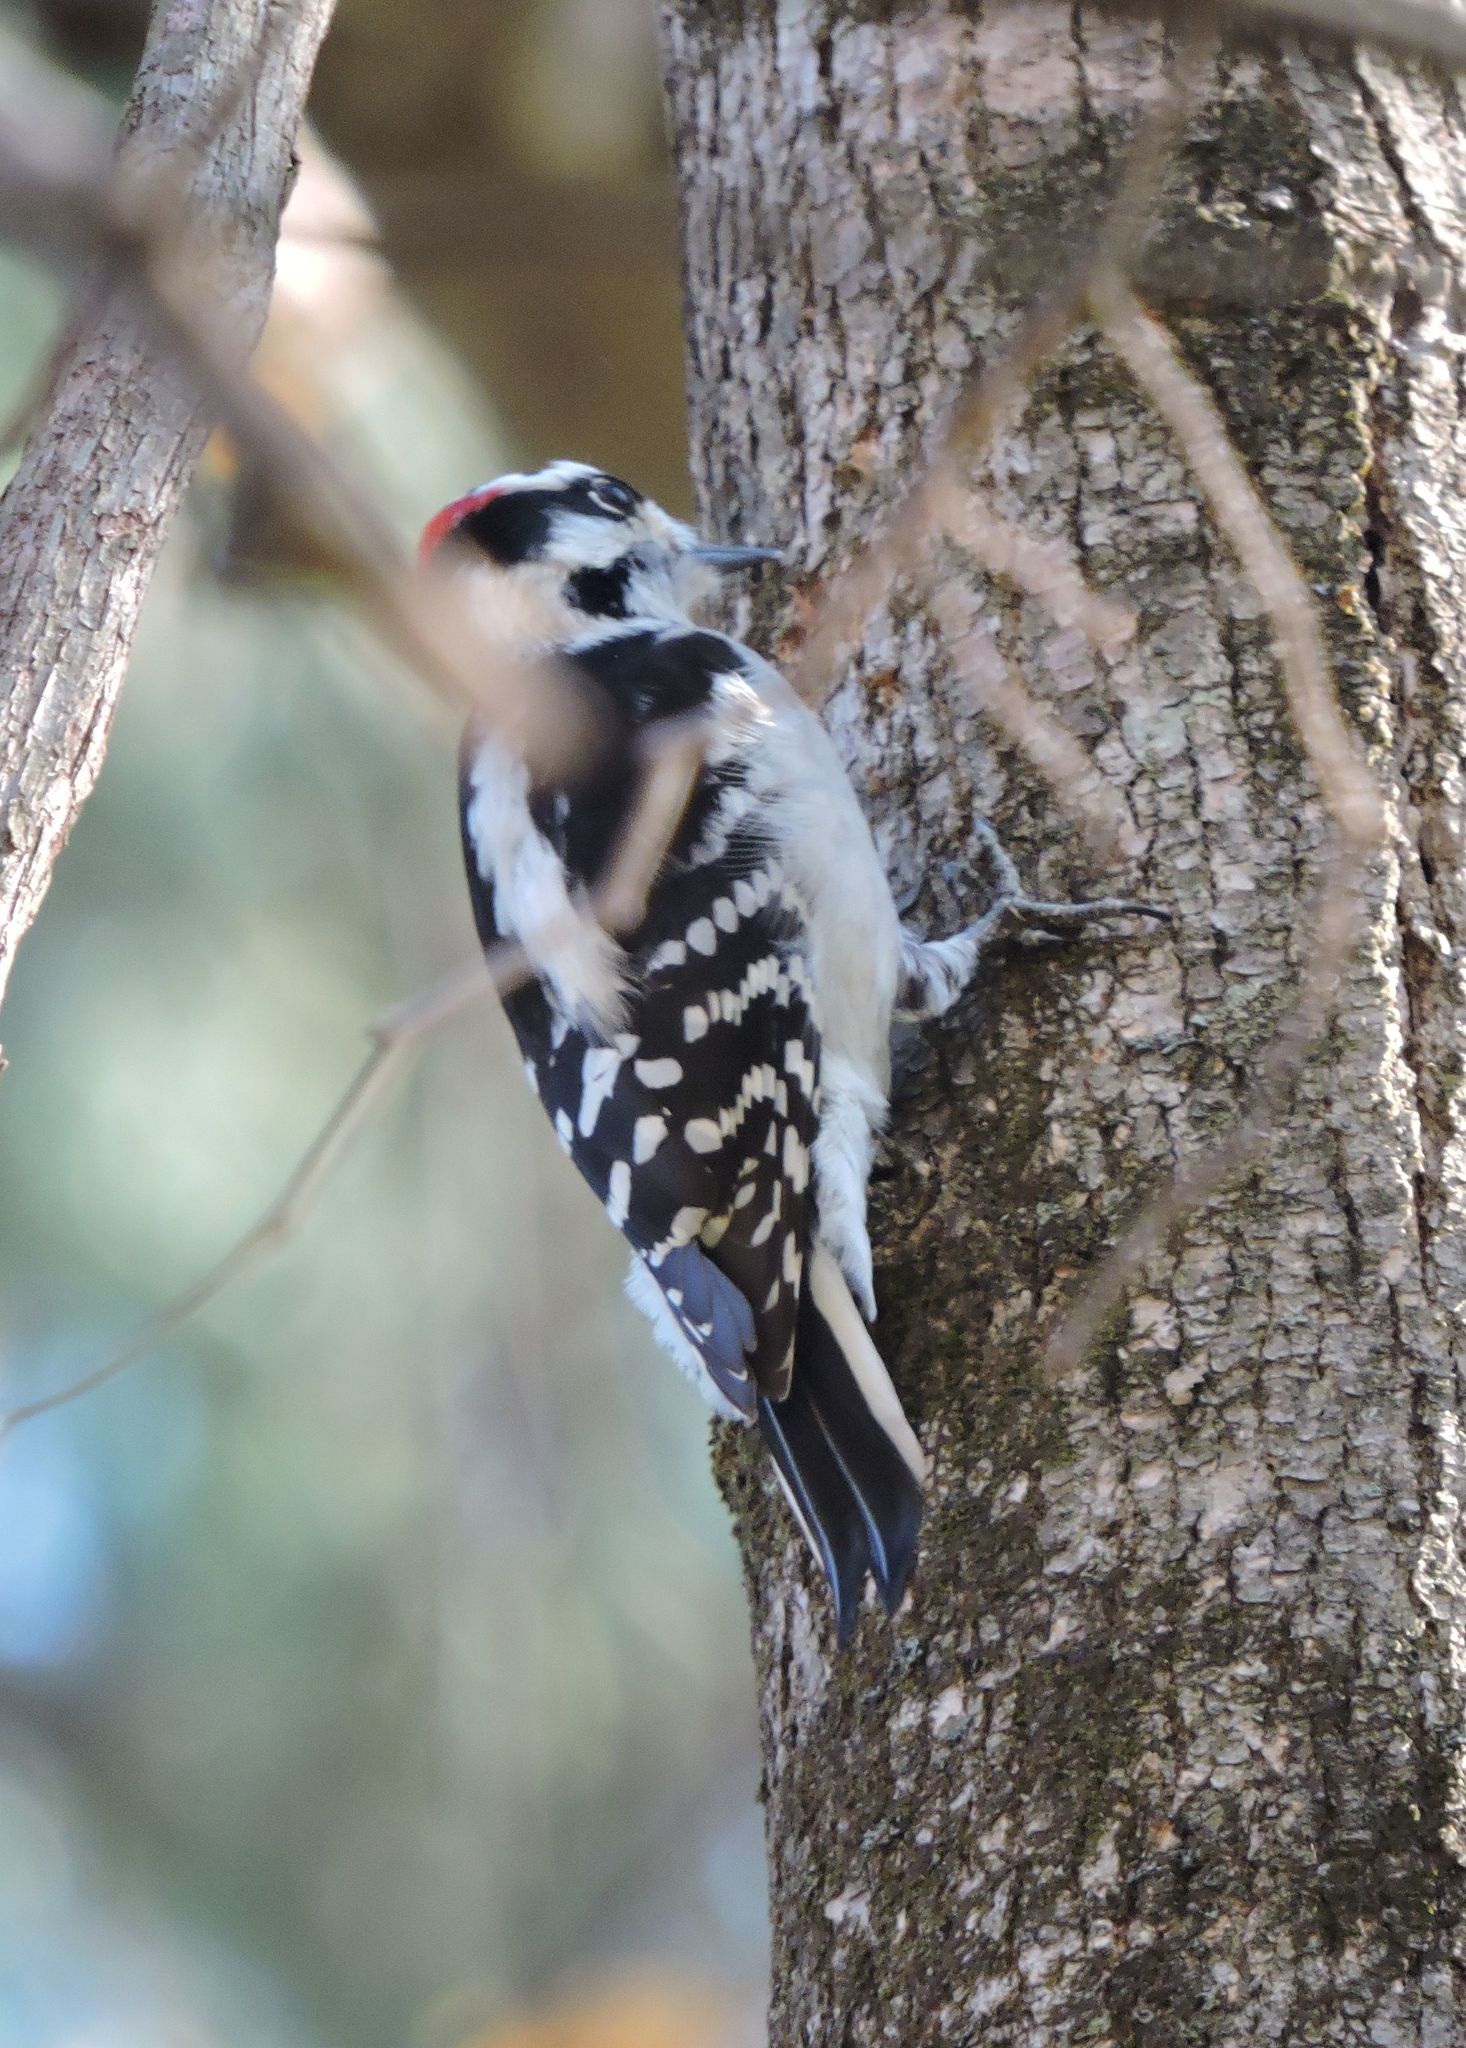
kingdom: Animalia
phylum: Chordata
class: Aves
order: Piciformes
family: Picidae
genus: Leuconotopicus
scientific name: Leuconotopicus villosus
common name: Hairy woodpecker
